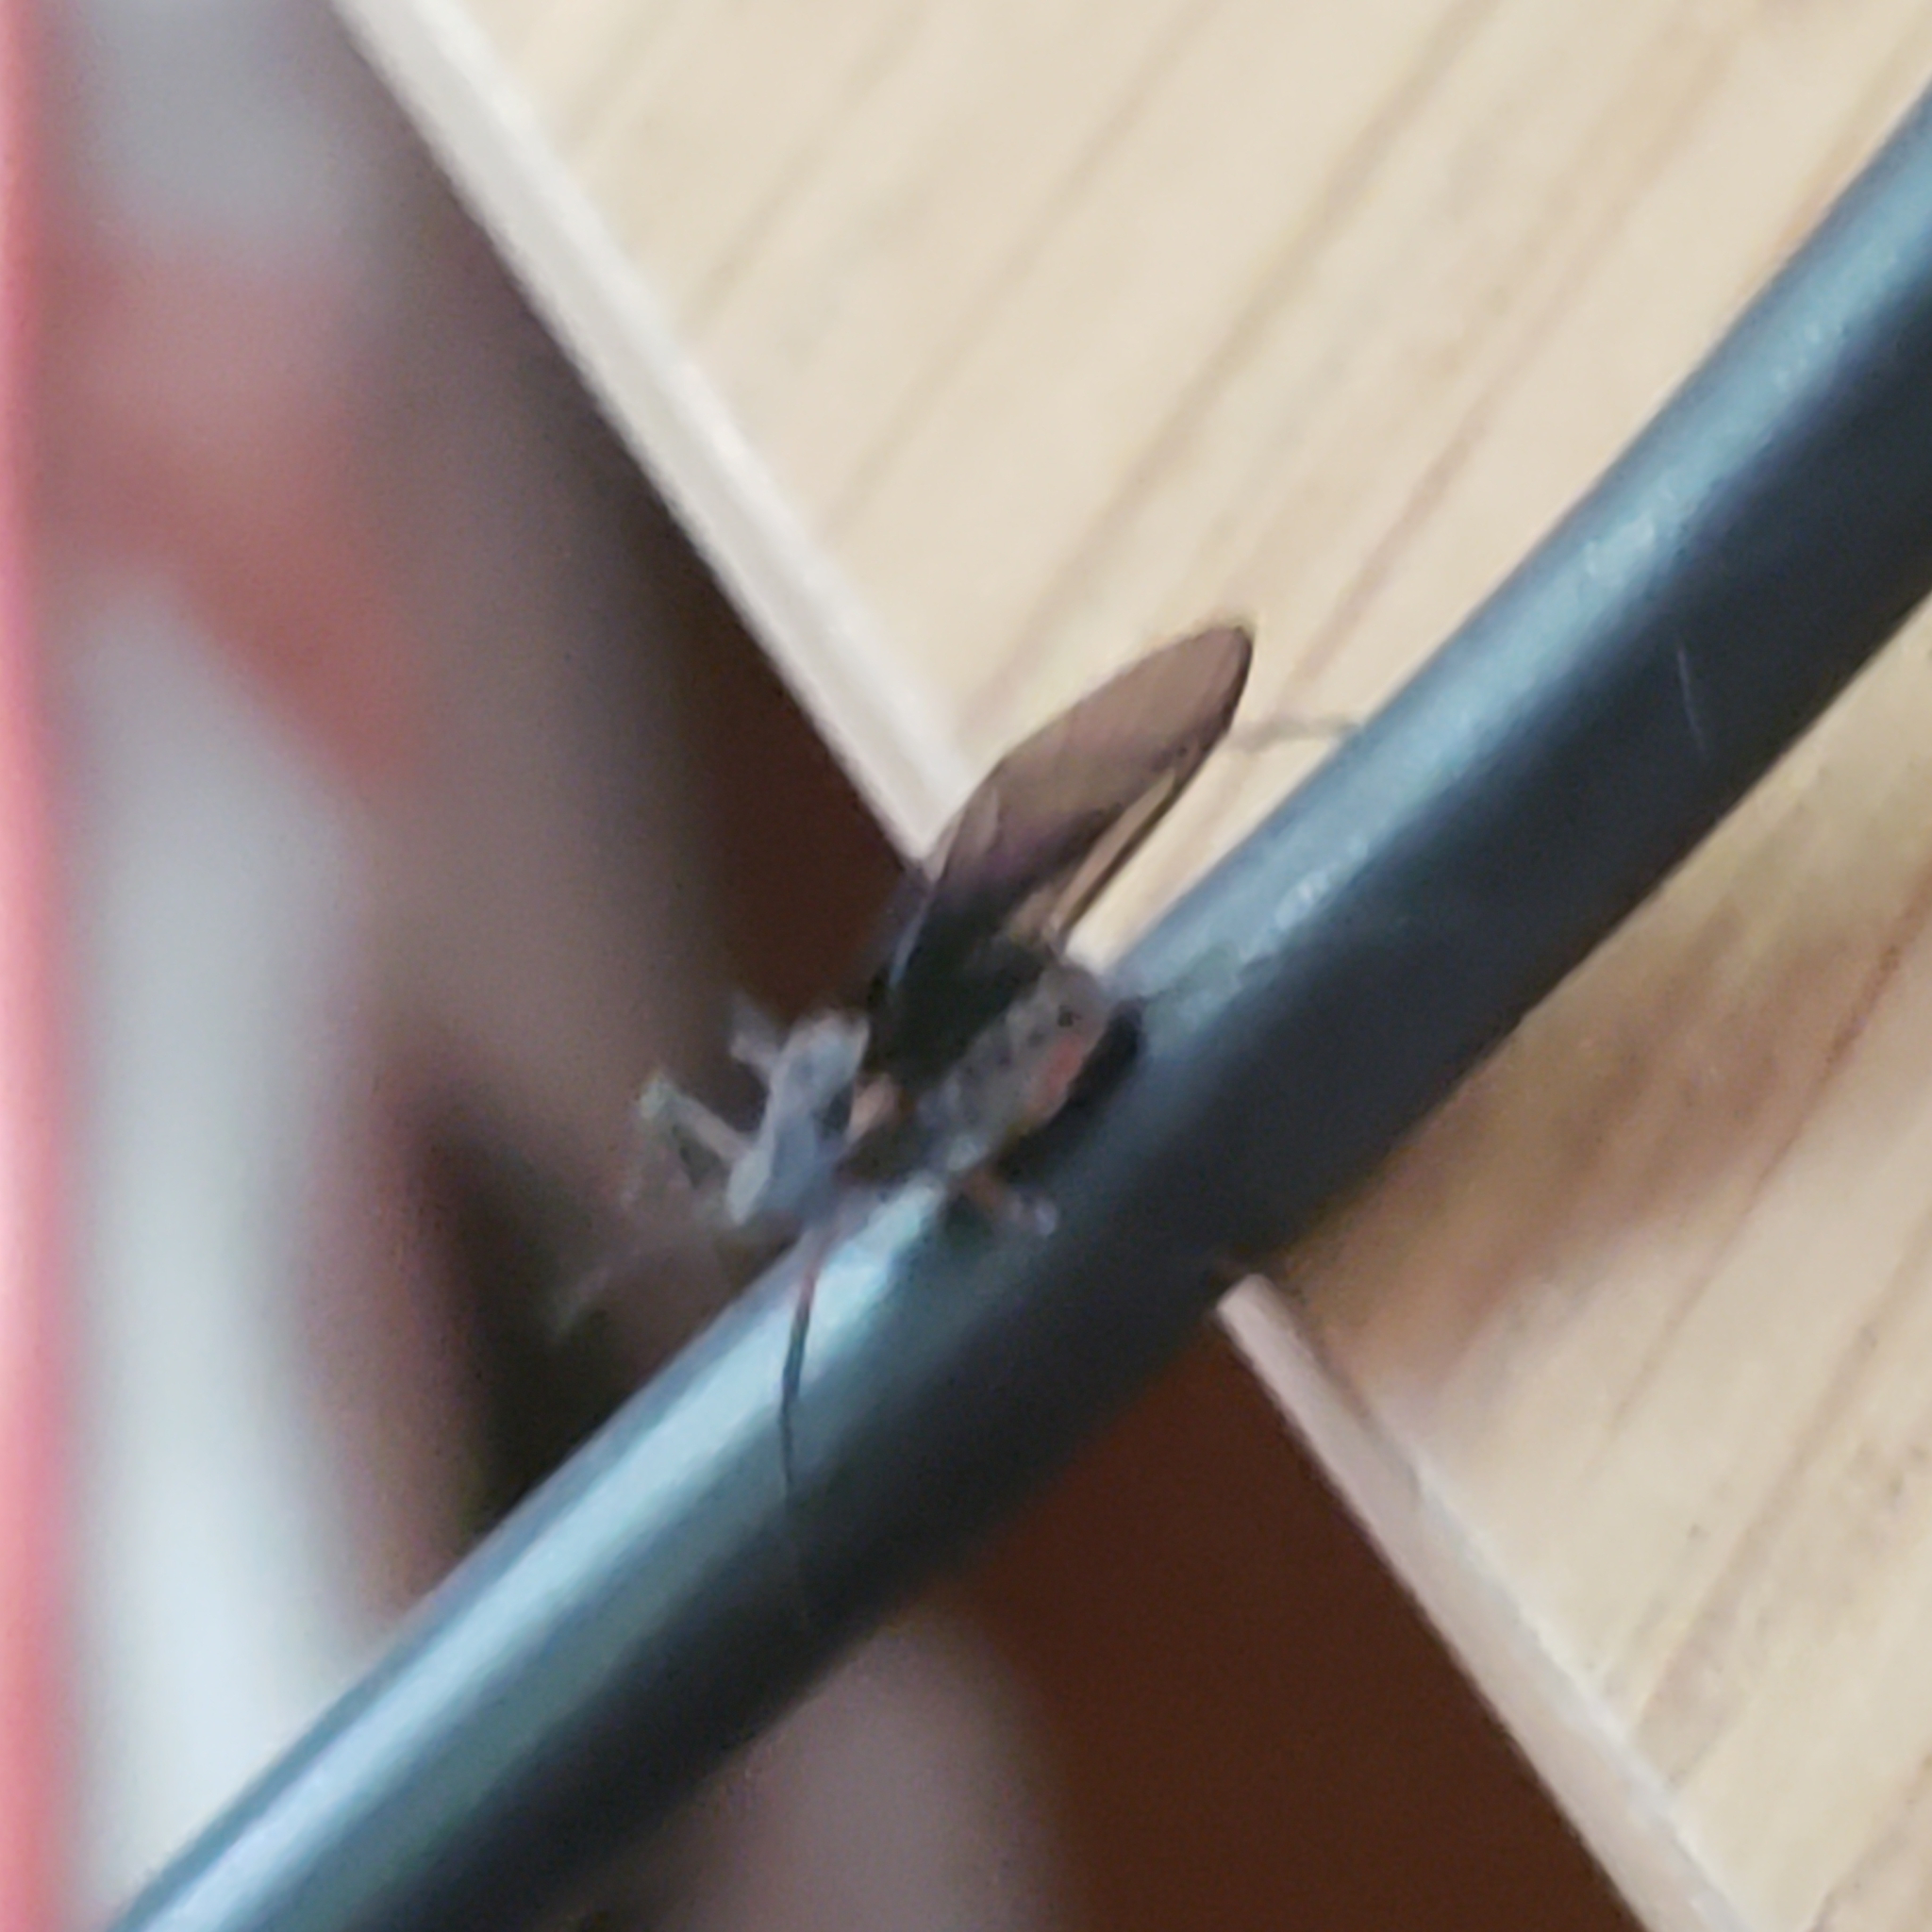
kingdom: Animalia
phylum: Arthropoda
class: Insecta
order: Hemiptera
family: Aphididae
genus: Longistigma
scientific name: Longistigma caryae
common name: Giant bark aphid
